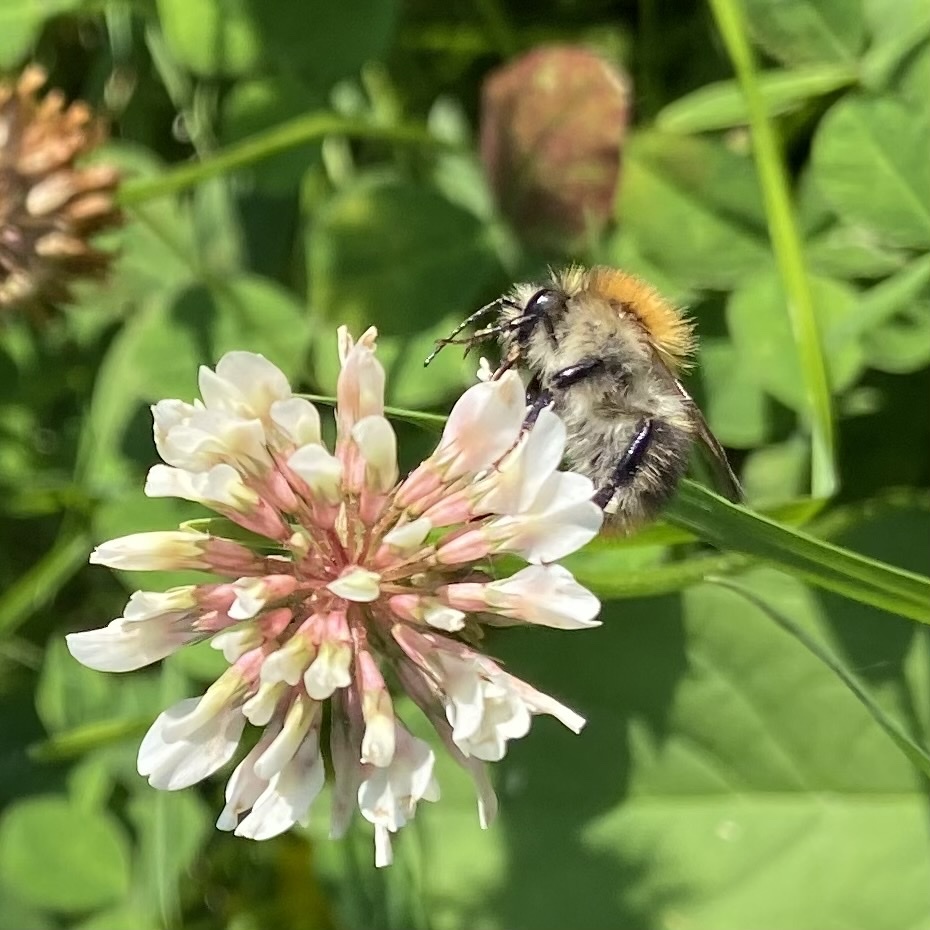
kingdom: Animalia
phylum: Arthropoda
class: Insecta
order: Hymenoptera
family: Apidae
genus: Bombus
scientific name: Bombus pascuorum
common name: Common carder bee
